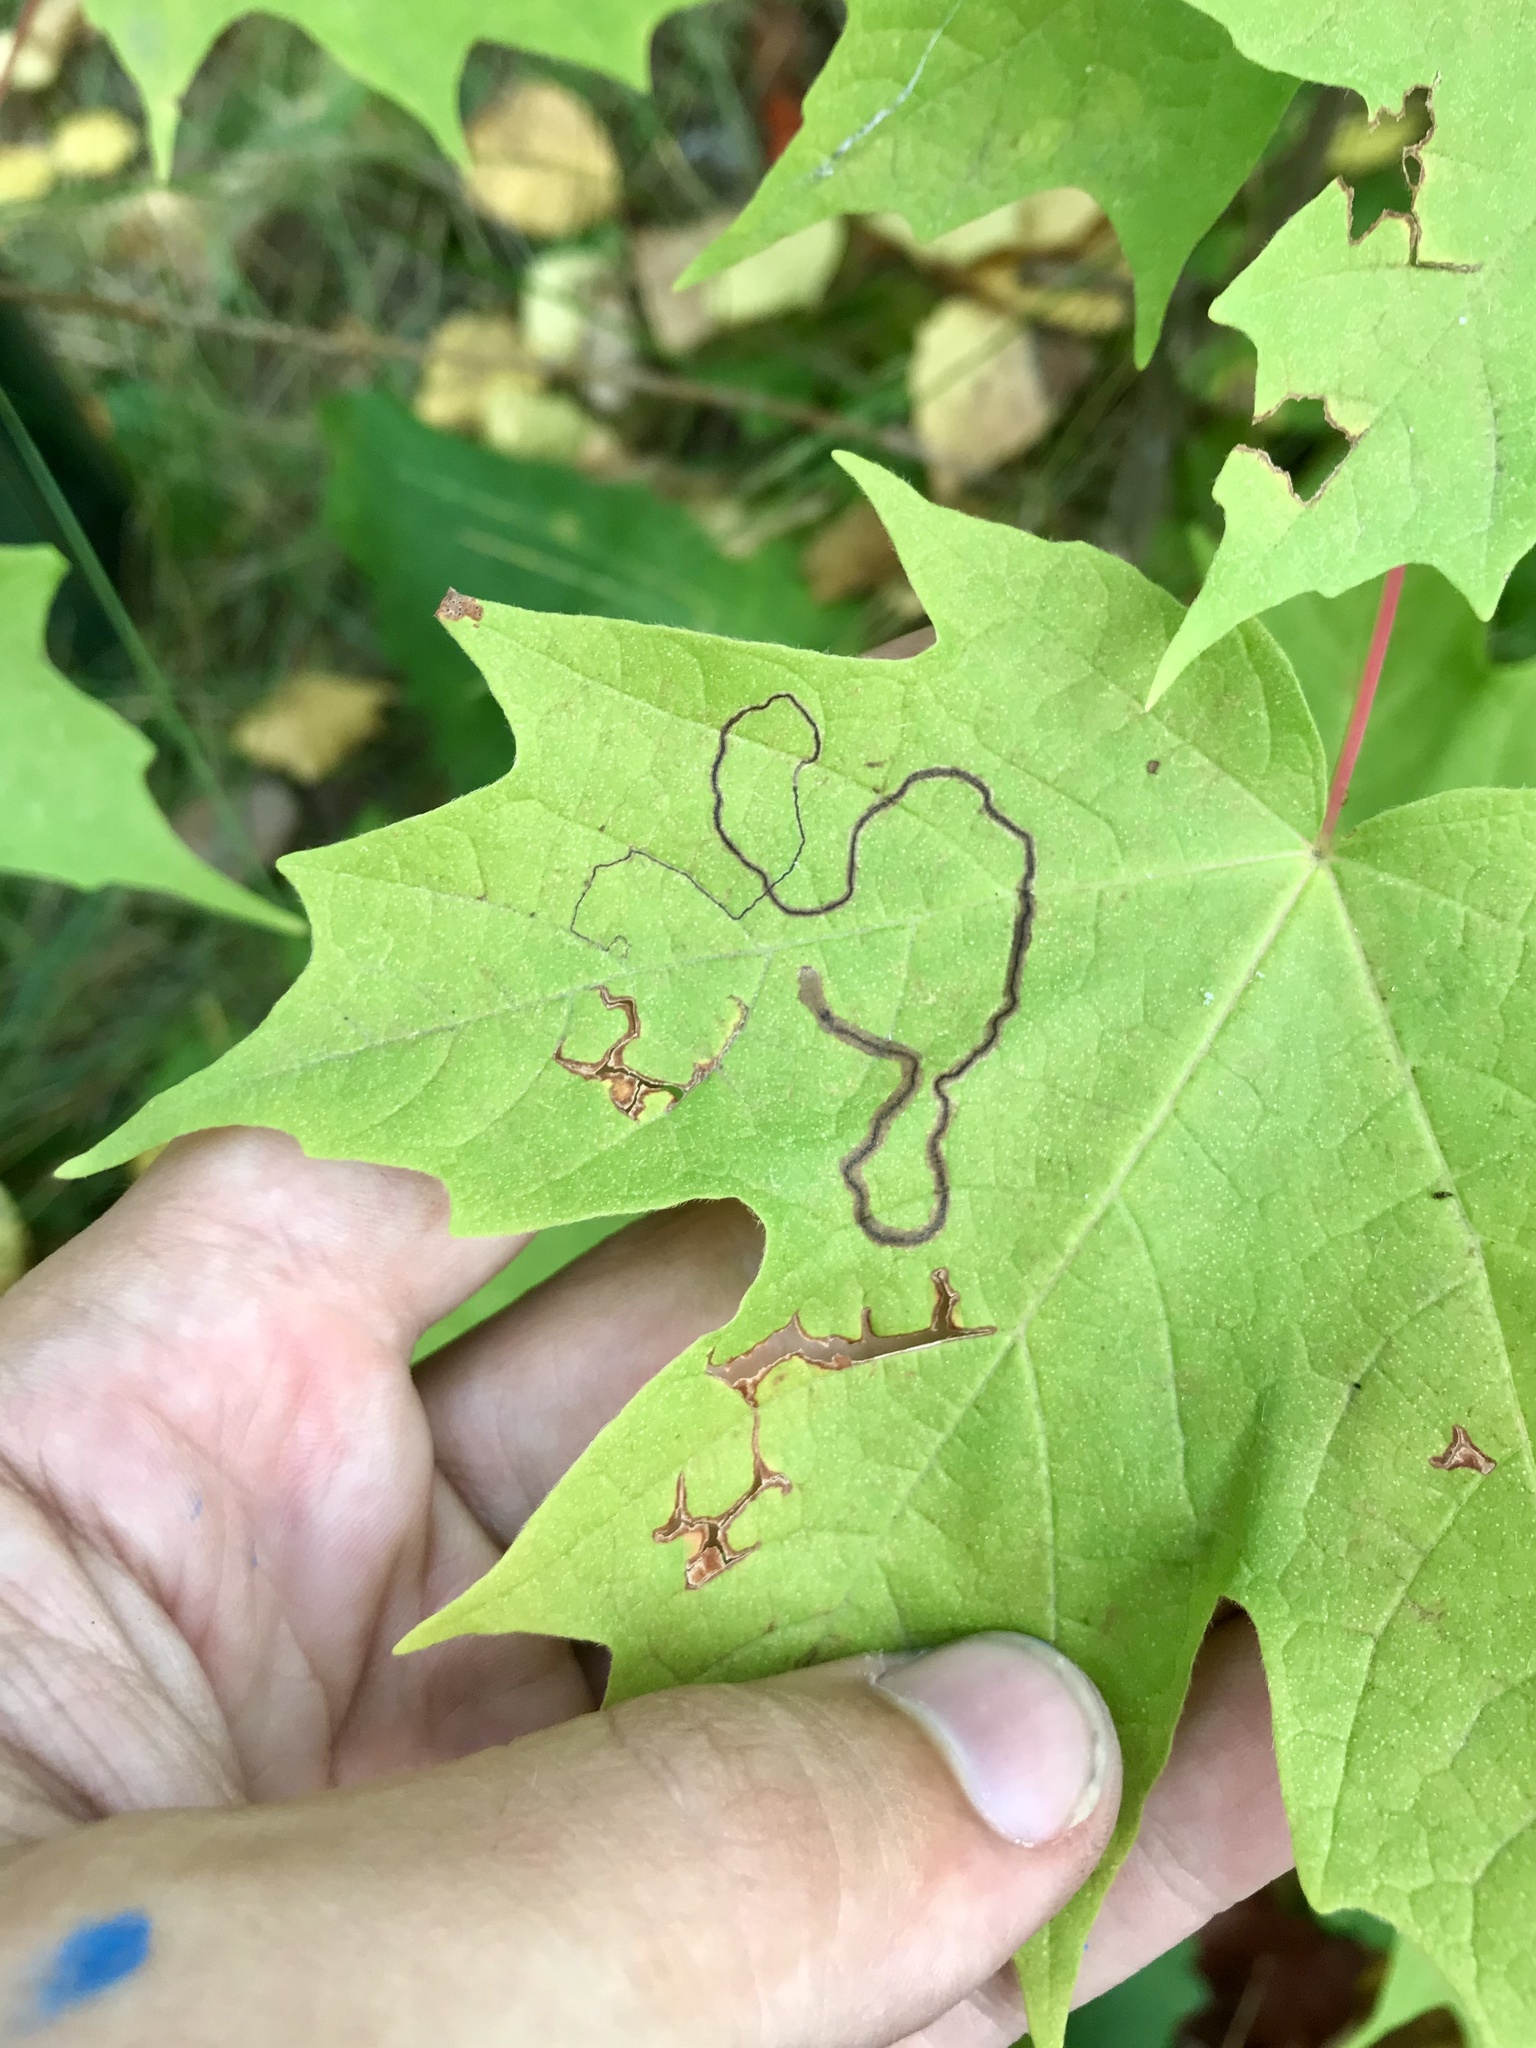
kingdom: Animalia
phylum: Arthropoda
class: Insecta
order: Lepidoptera
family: Nepticulidae
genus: Glaucolepis
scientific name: Glaucolepis saccharella
